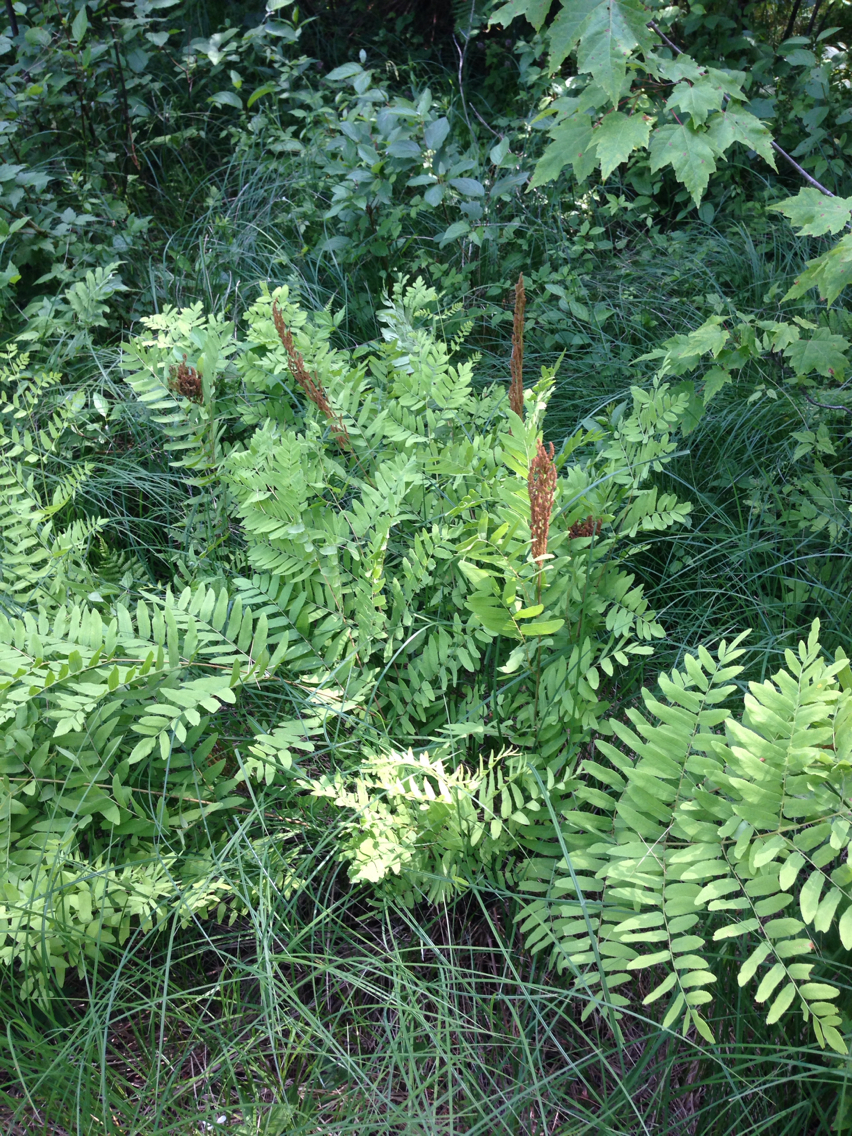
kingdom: Plantae
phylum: Tracheophyta
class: Polypodiopsida
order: Osmundales
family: Osmundaceae
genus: Osmunda
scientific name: Osmunda spectabilis
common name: American royal fern
